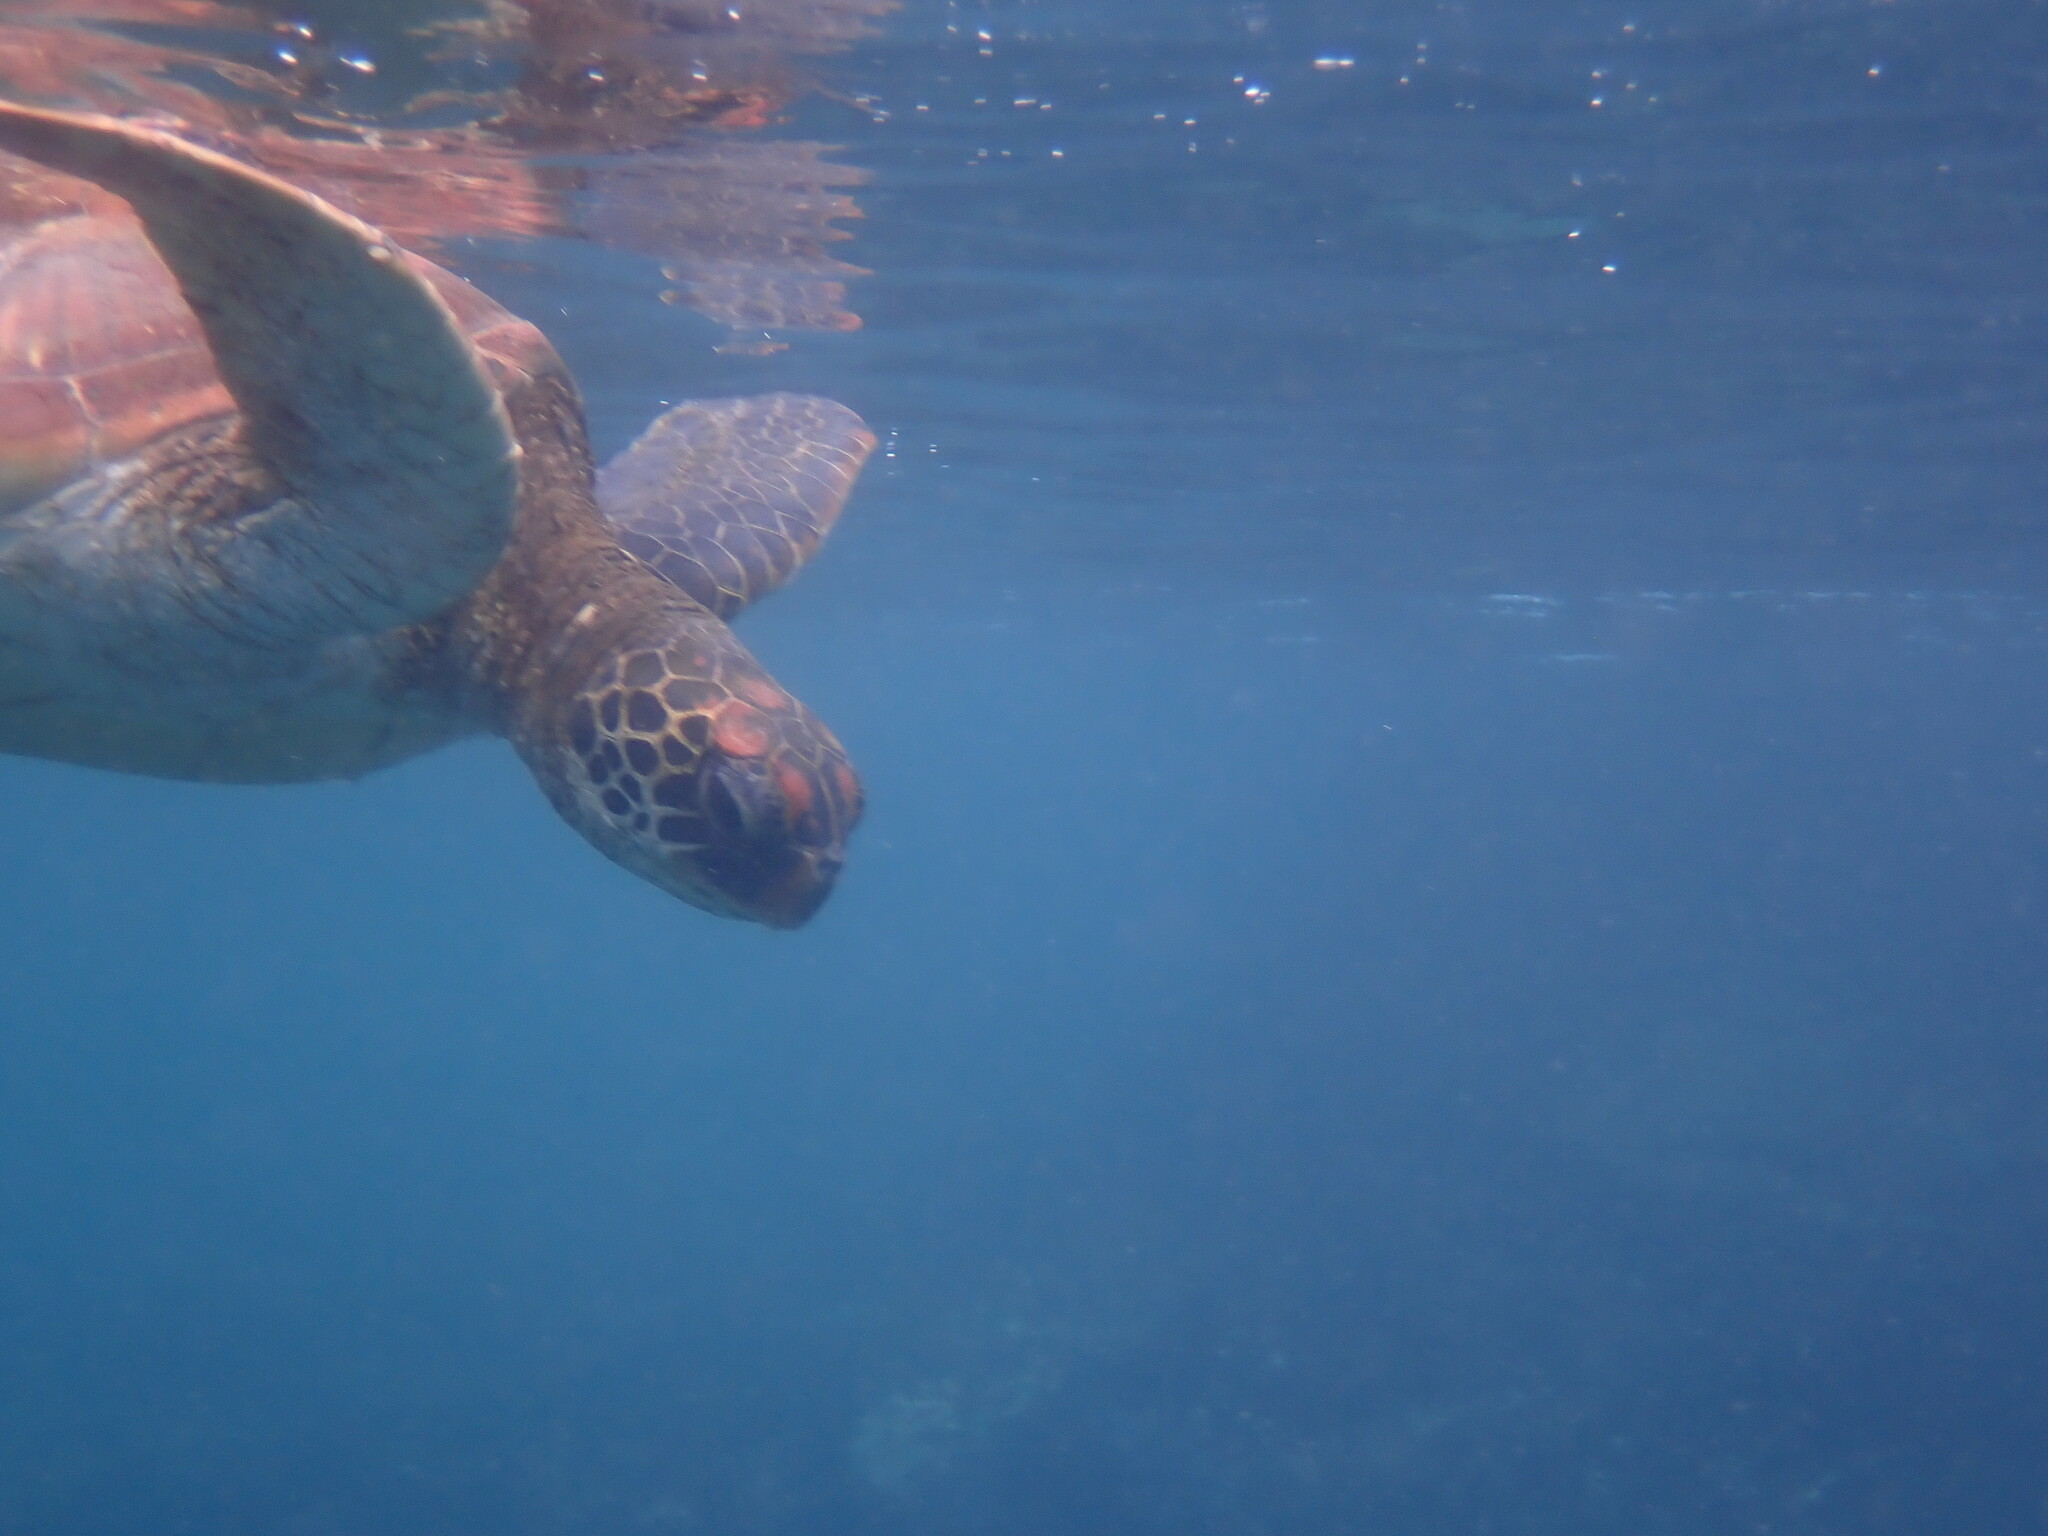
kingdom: Animalia
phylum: Chordata
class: Testudines
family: Cheloniidae
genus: Chelonia
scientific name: Chelonia mydas
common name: Green turtle
